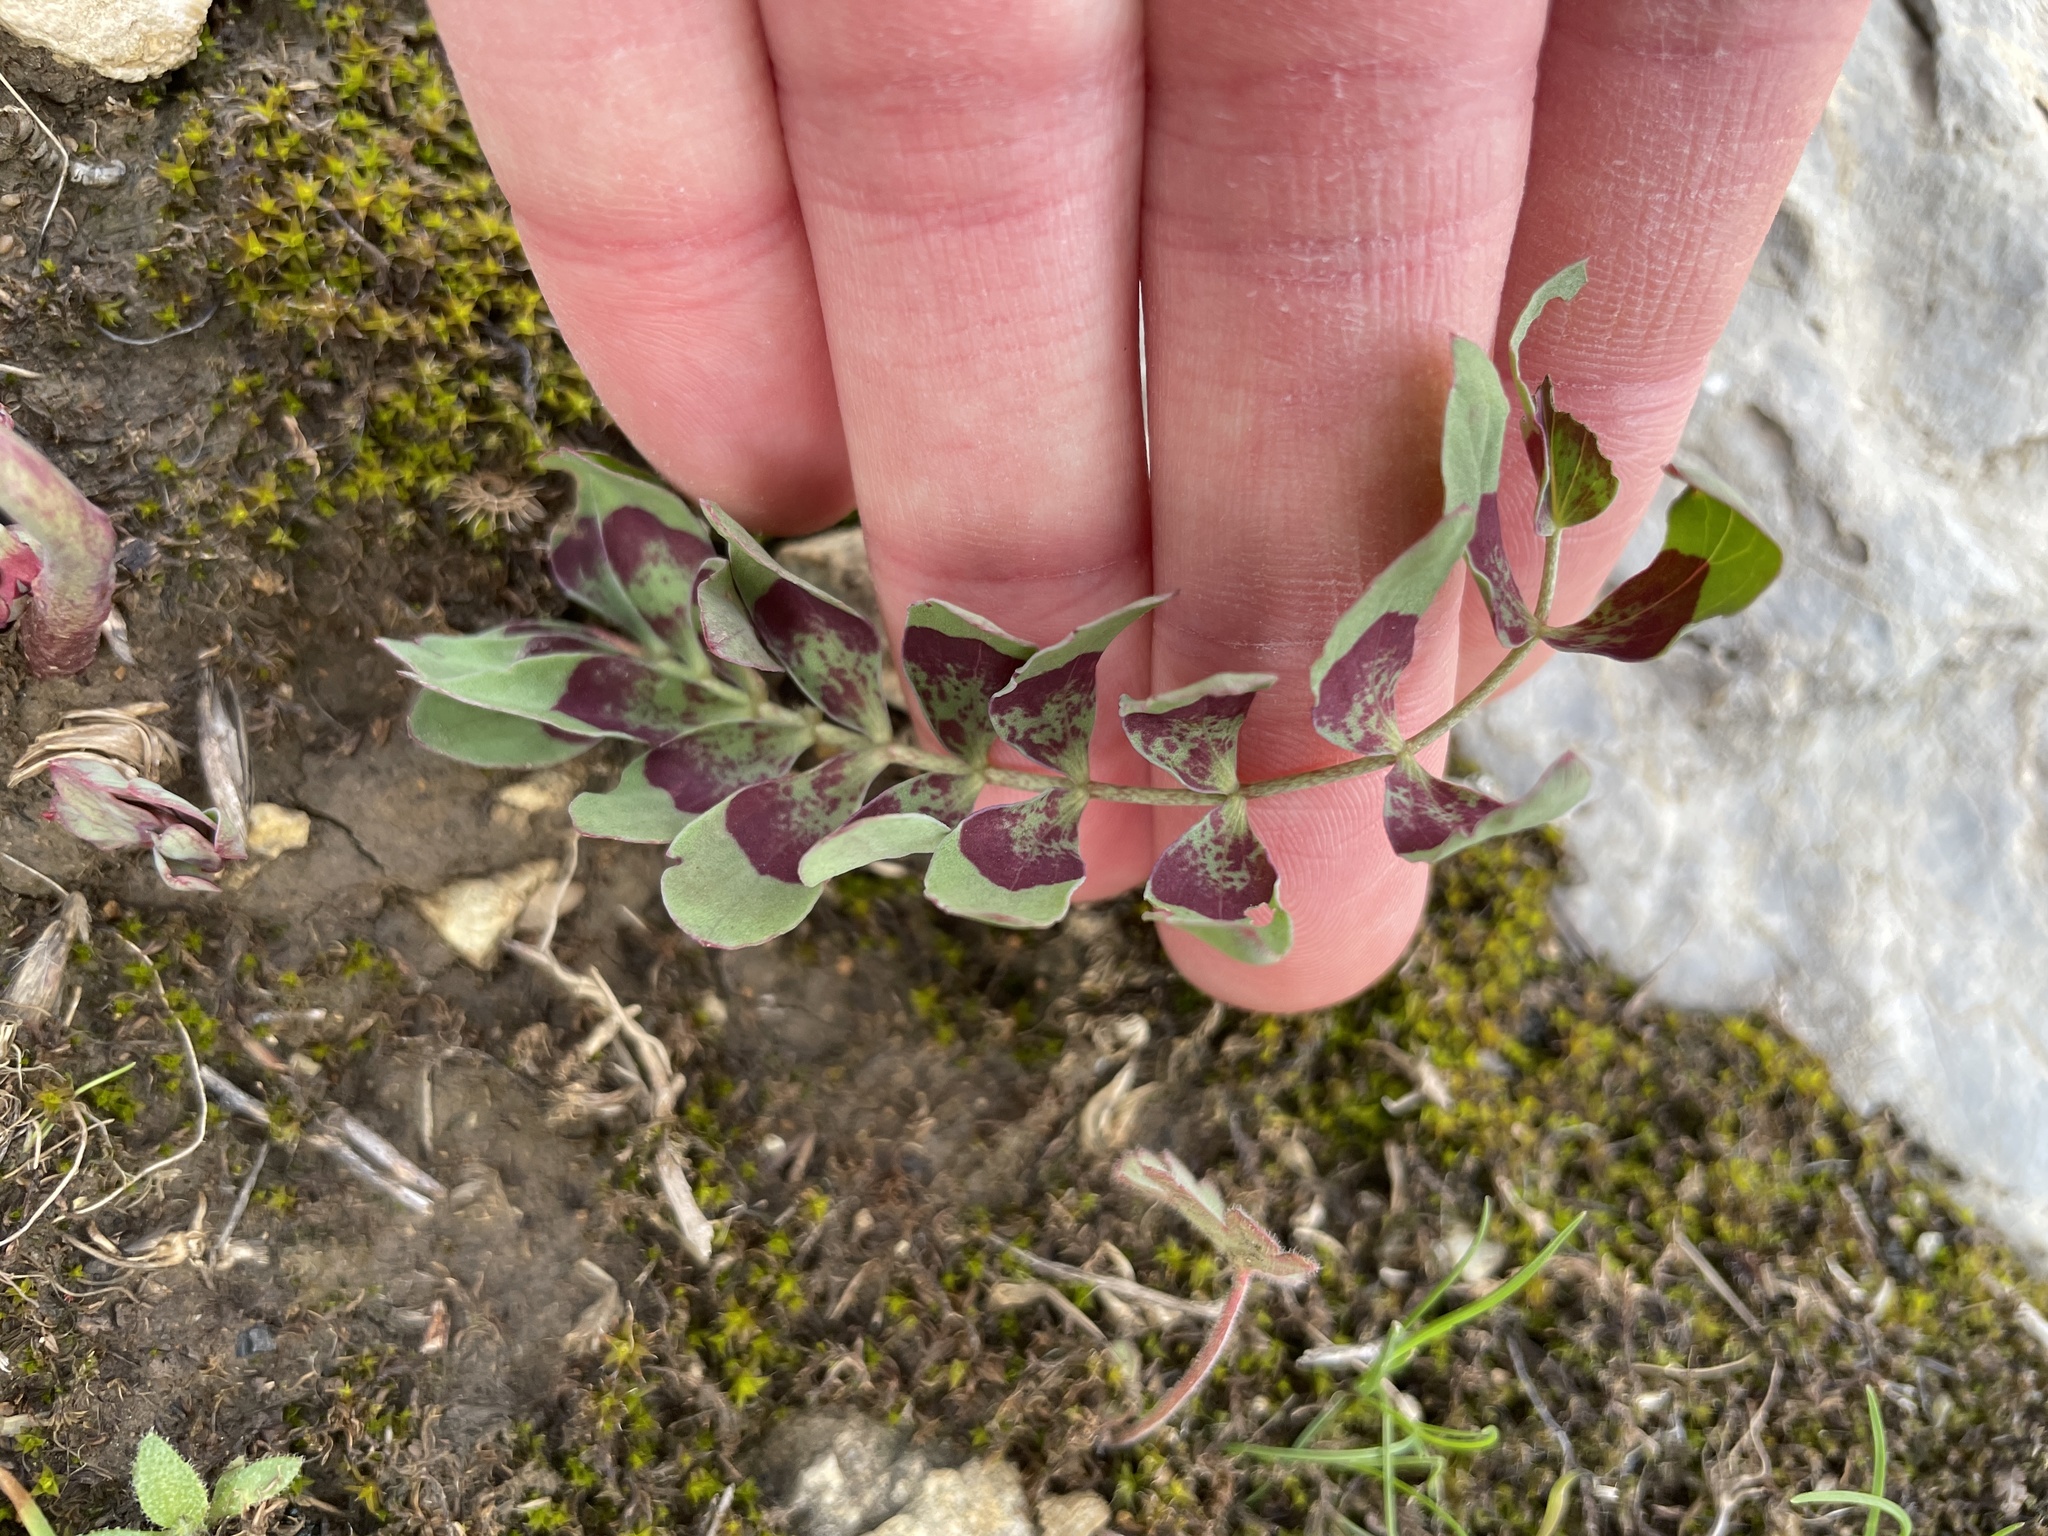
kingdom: Plantae
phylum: Tracheophyta
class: Magnoliopsida
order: Ranunculales
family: Berberidaceae
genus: Bongardia
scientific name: Bongardia chrysogonum
